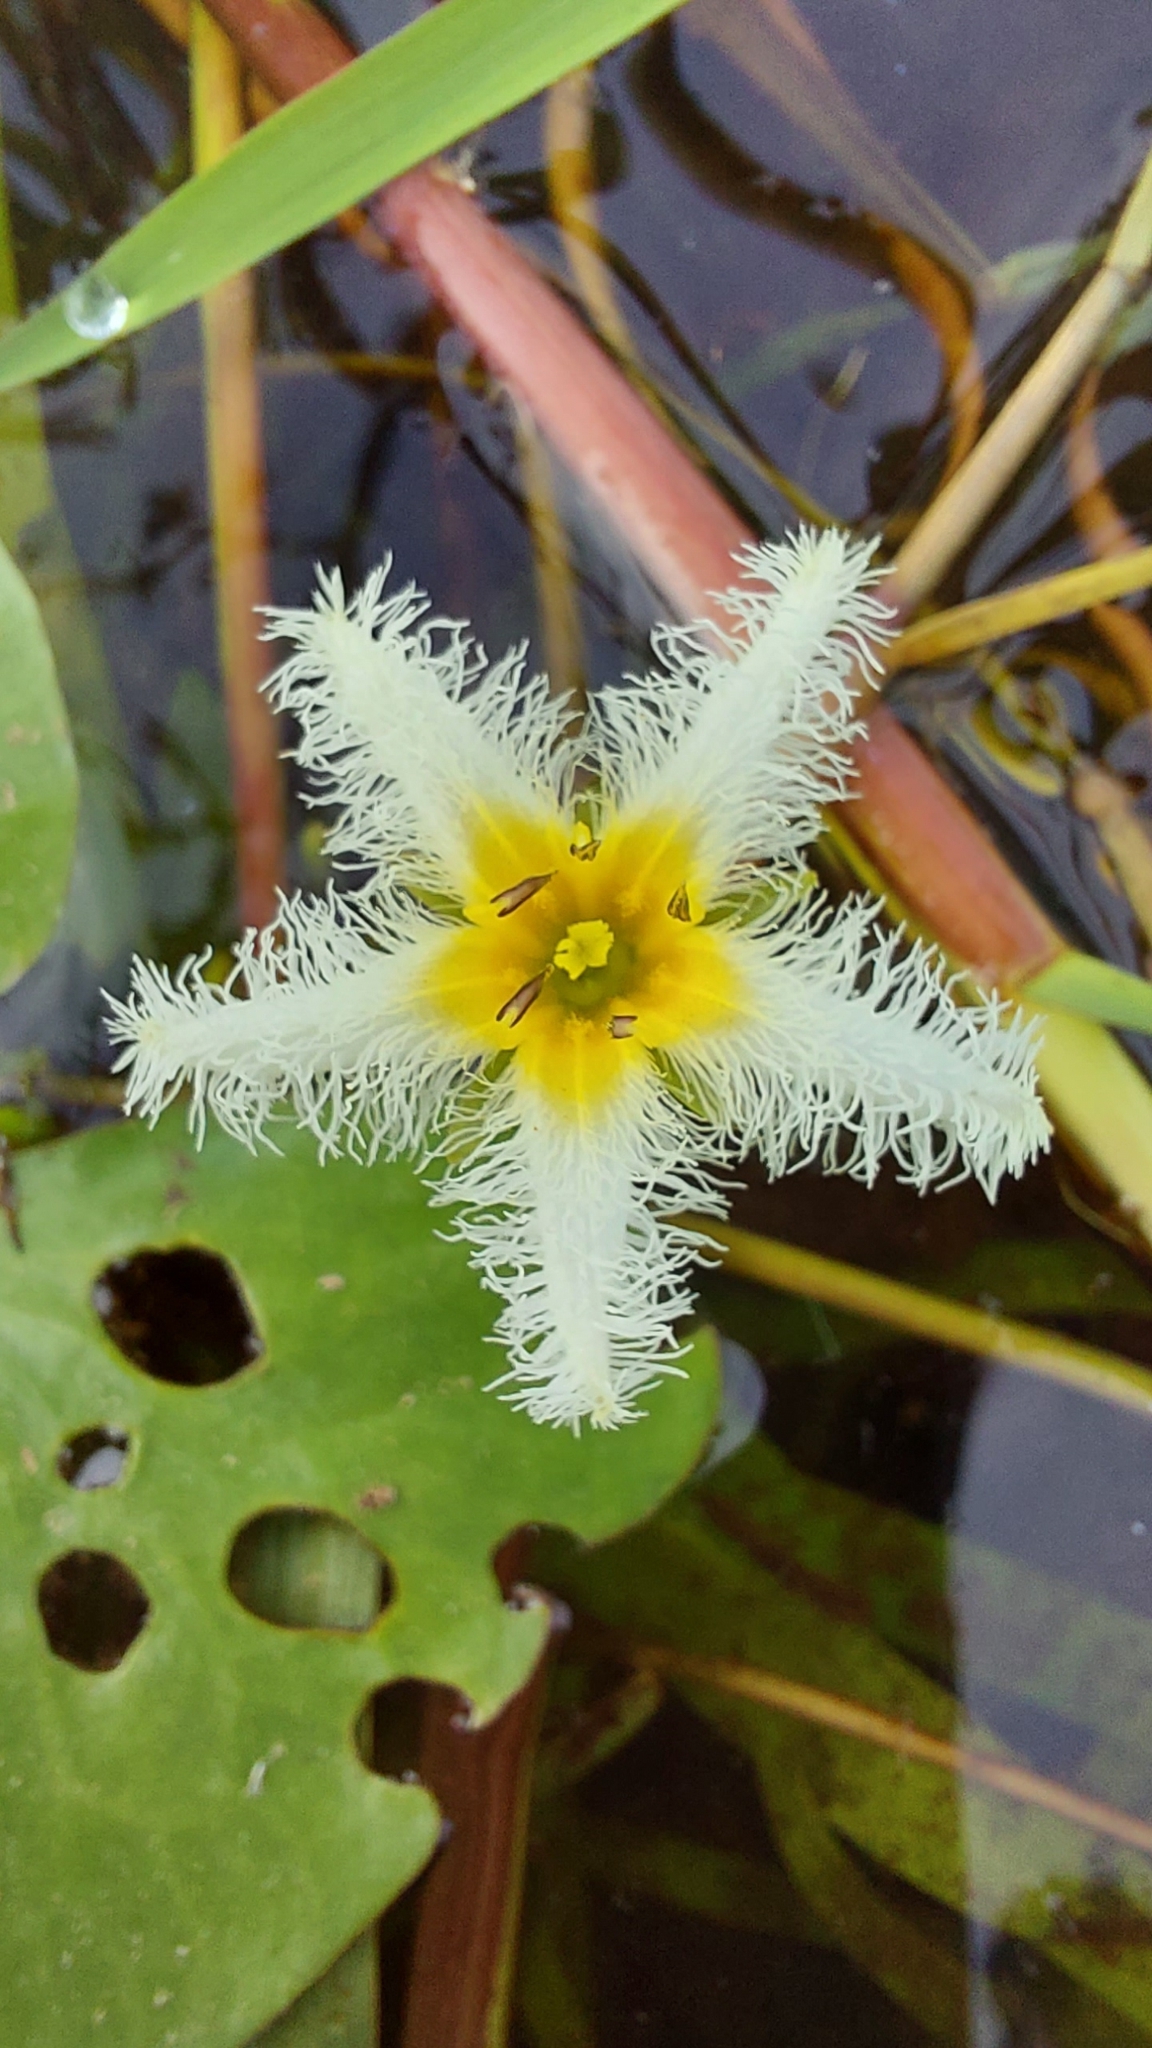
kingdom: Plantae
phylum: Tracheophyta
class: Magnoliopsida
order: Asterales
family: Menyanthaceae
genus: Nymphoides
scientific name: Nymphoides humboldtiana
